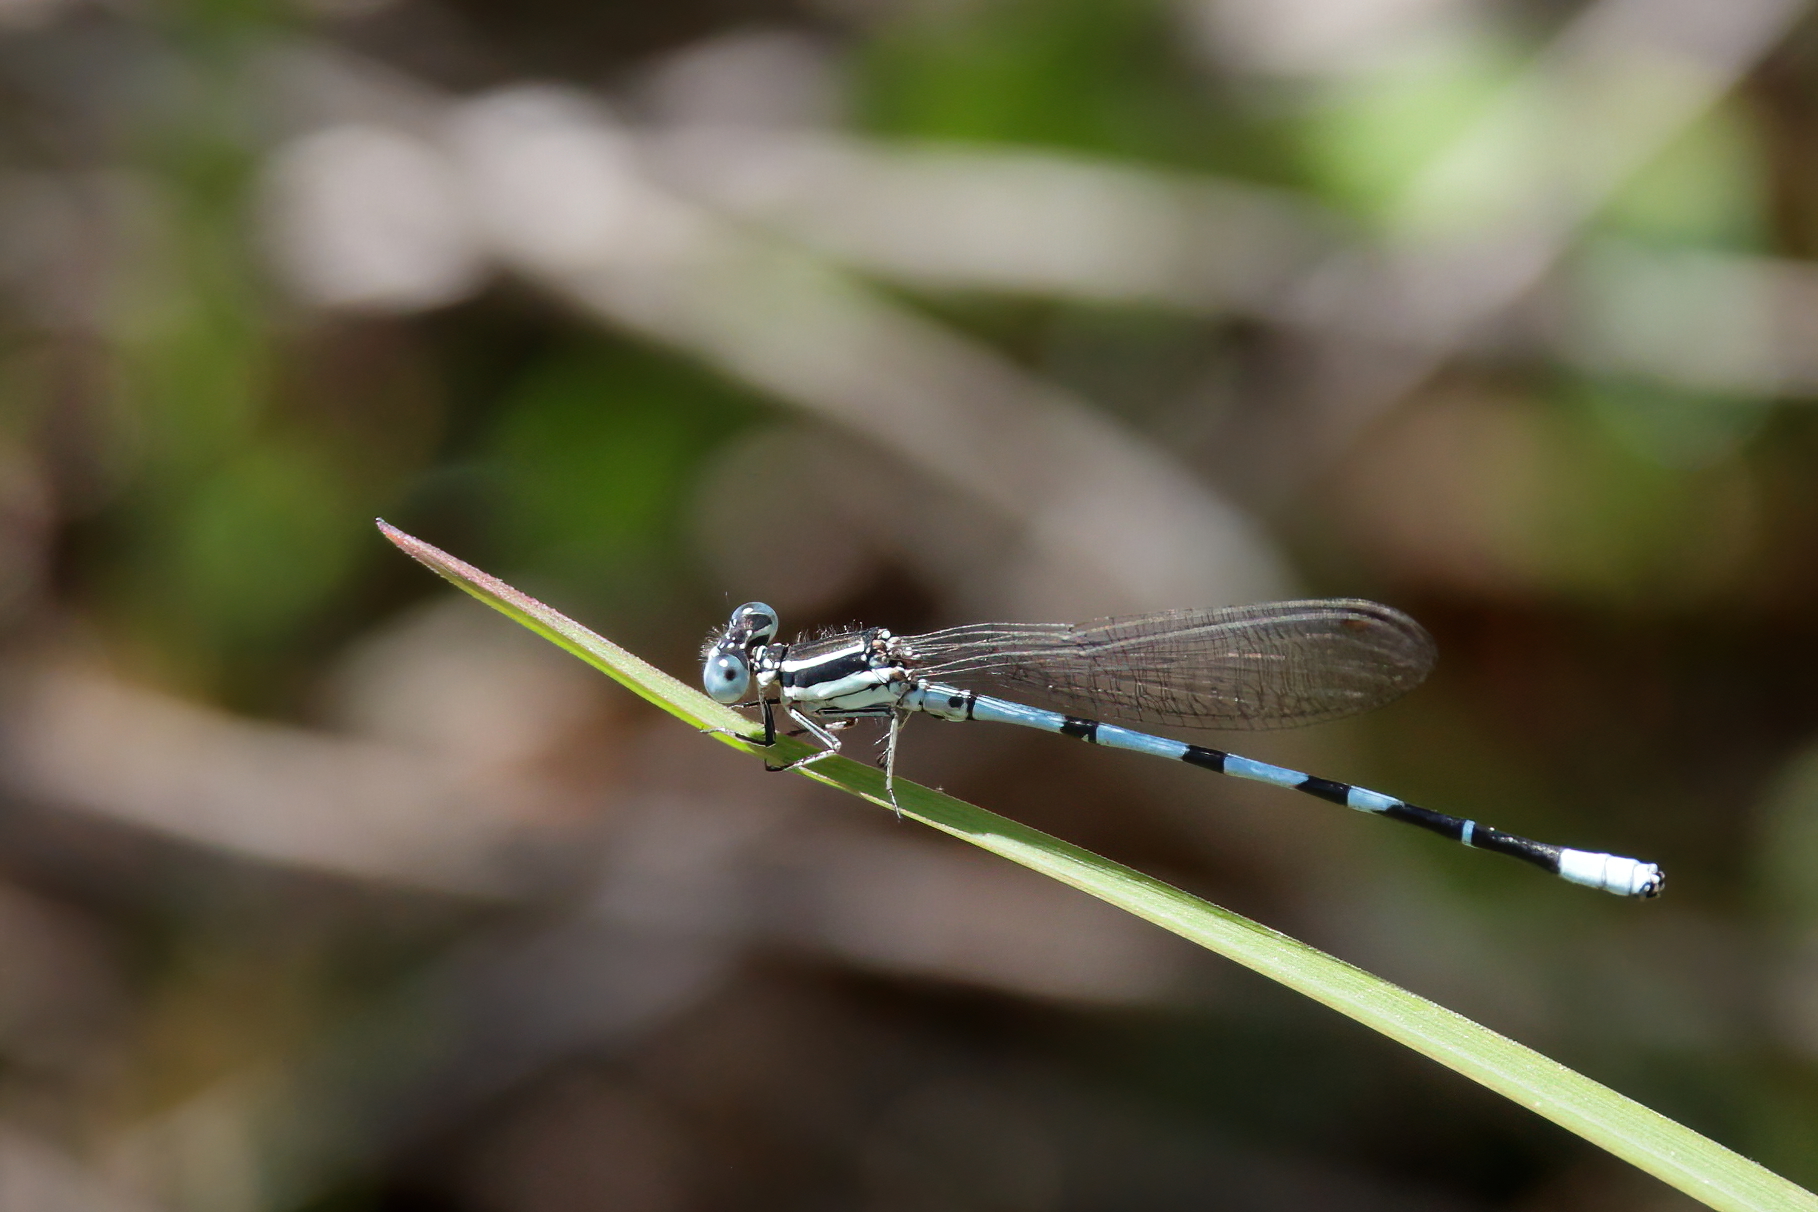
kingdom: Animalia
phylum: Arthropoda
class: Insecta
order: Odonata
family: Coenagrionidae
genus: Argia
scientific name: Argia bipunctulata
